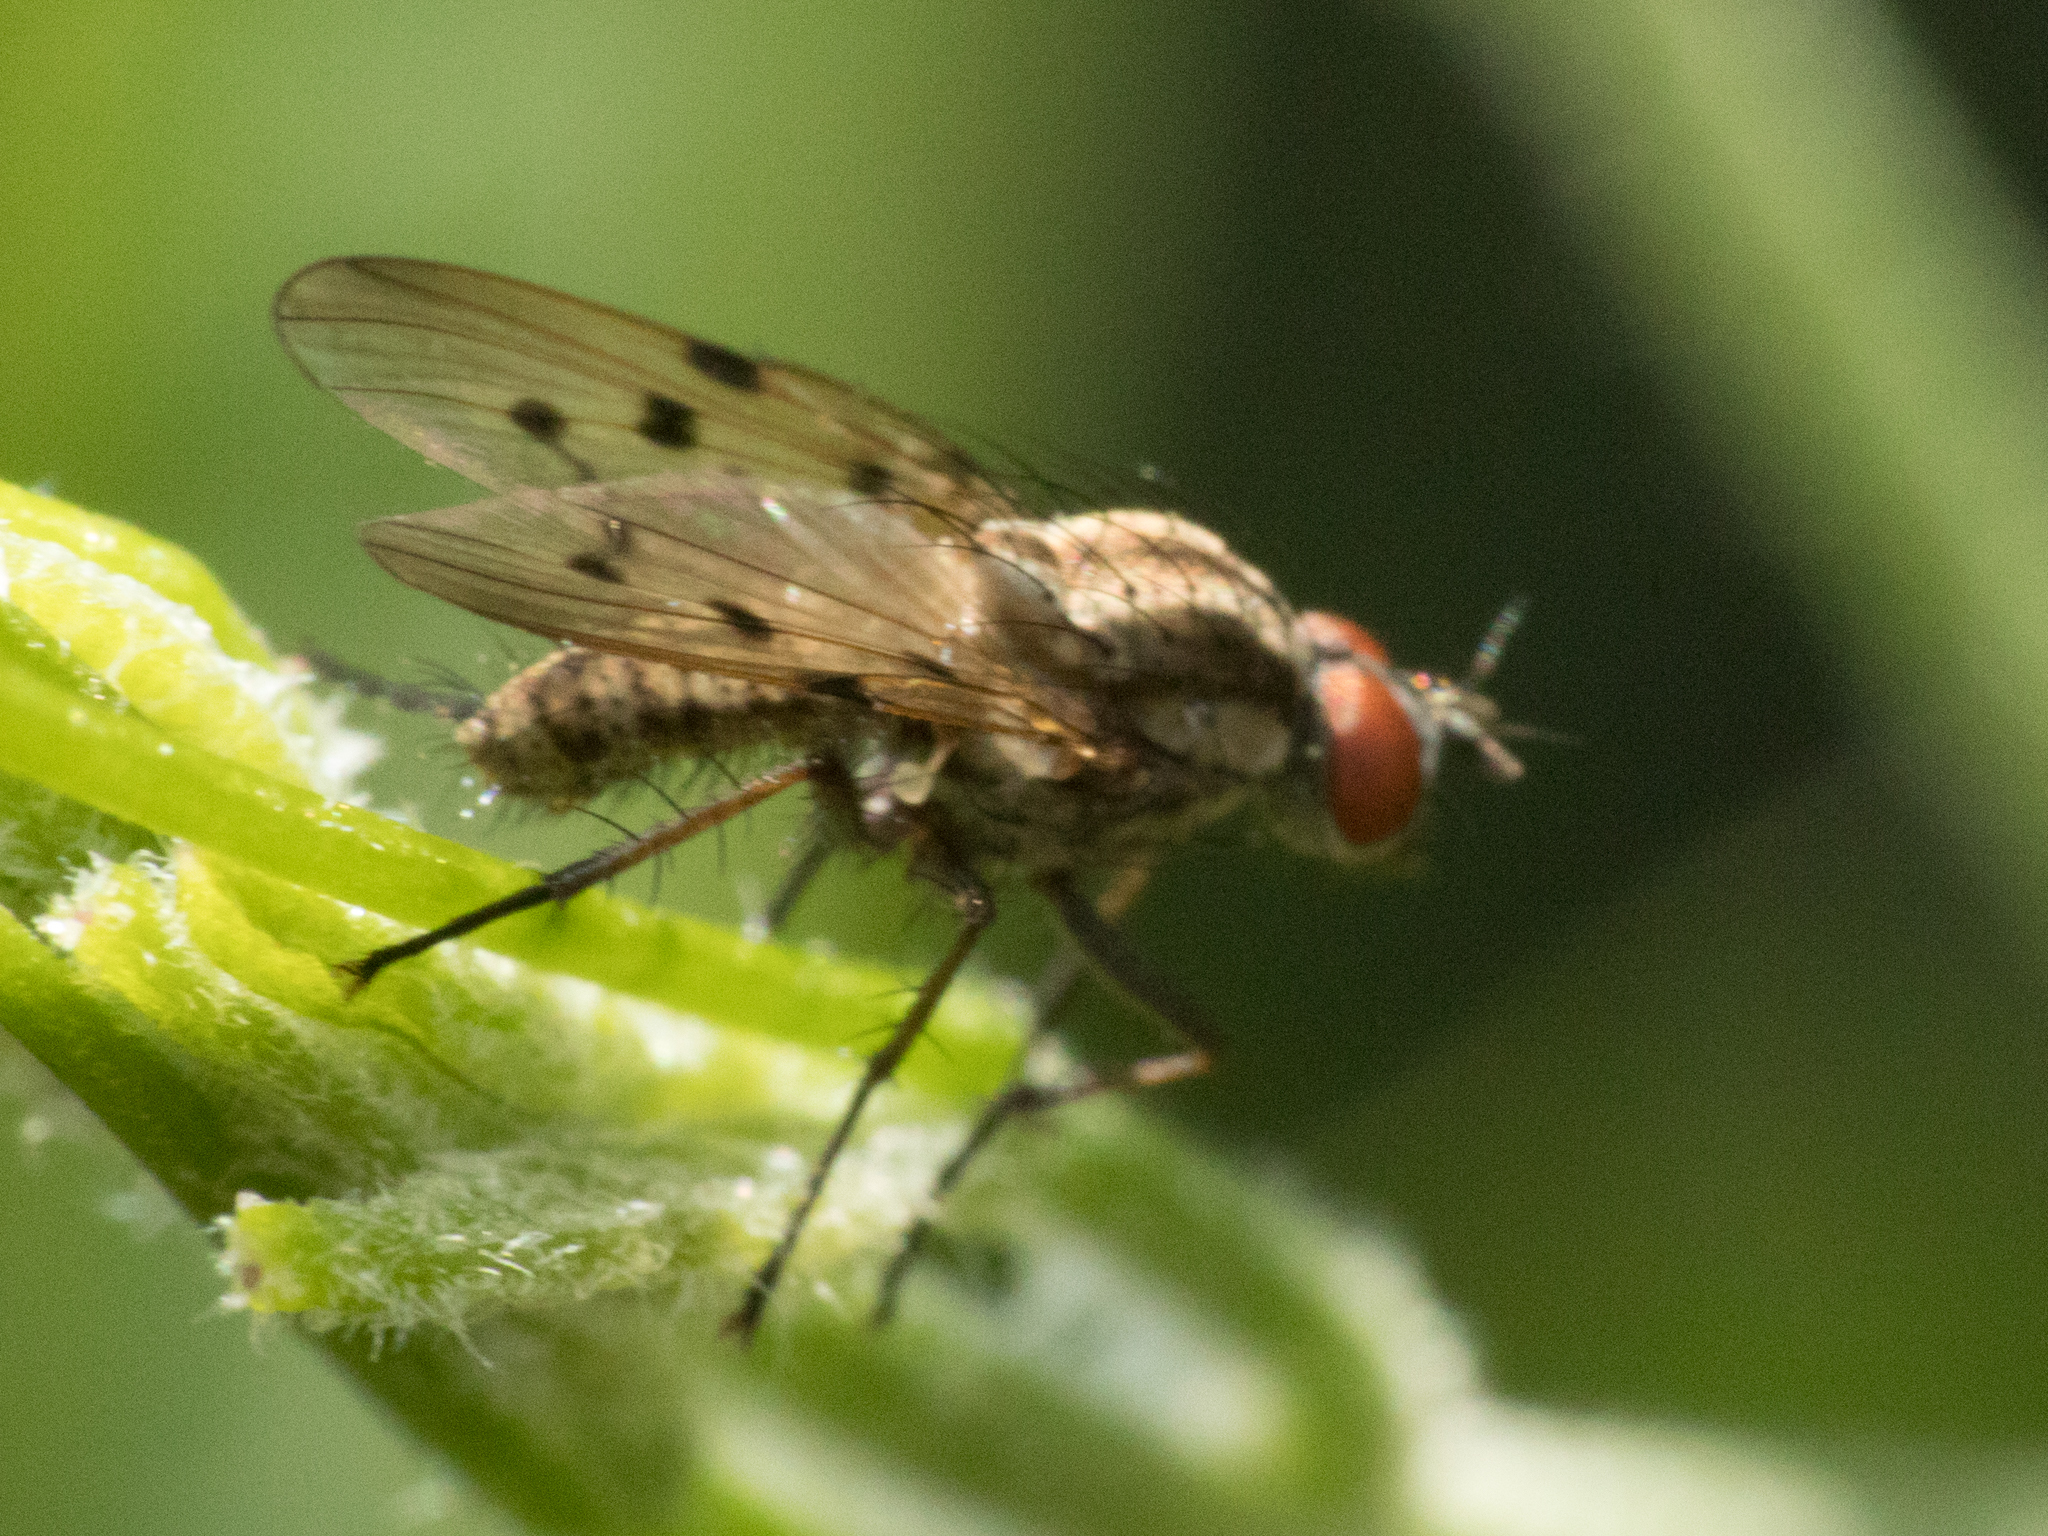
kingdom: Animalia
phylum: Arthropoda
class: Insecta
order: Diptera
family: Anthomyiidae
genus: Anthomyia
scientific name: Anthomyia punctipennis
